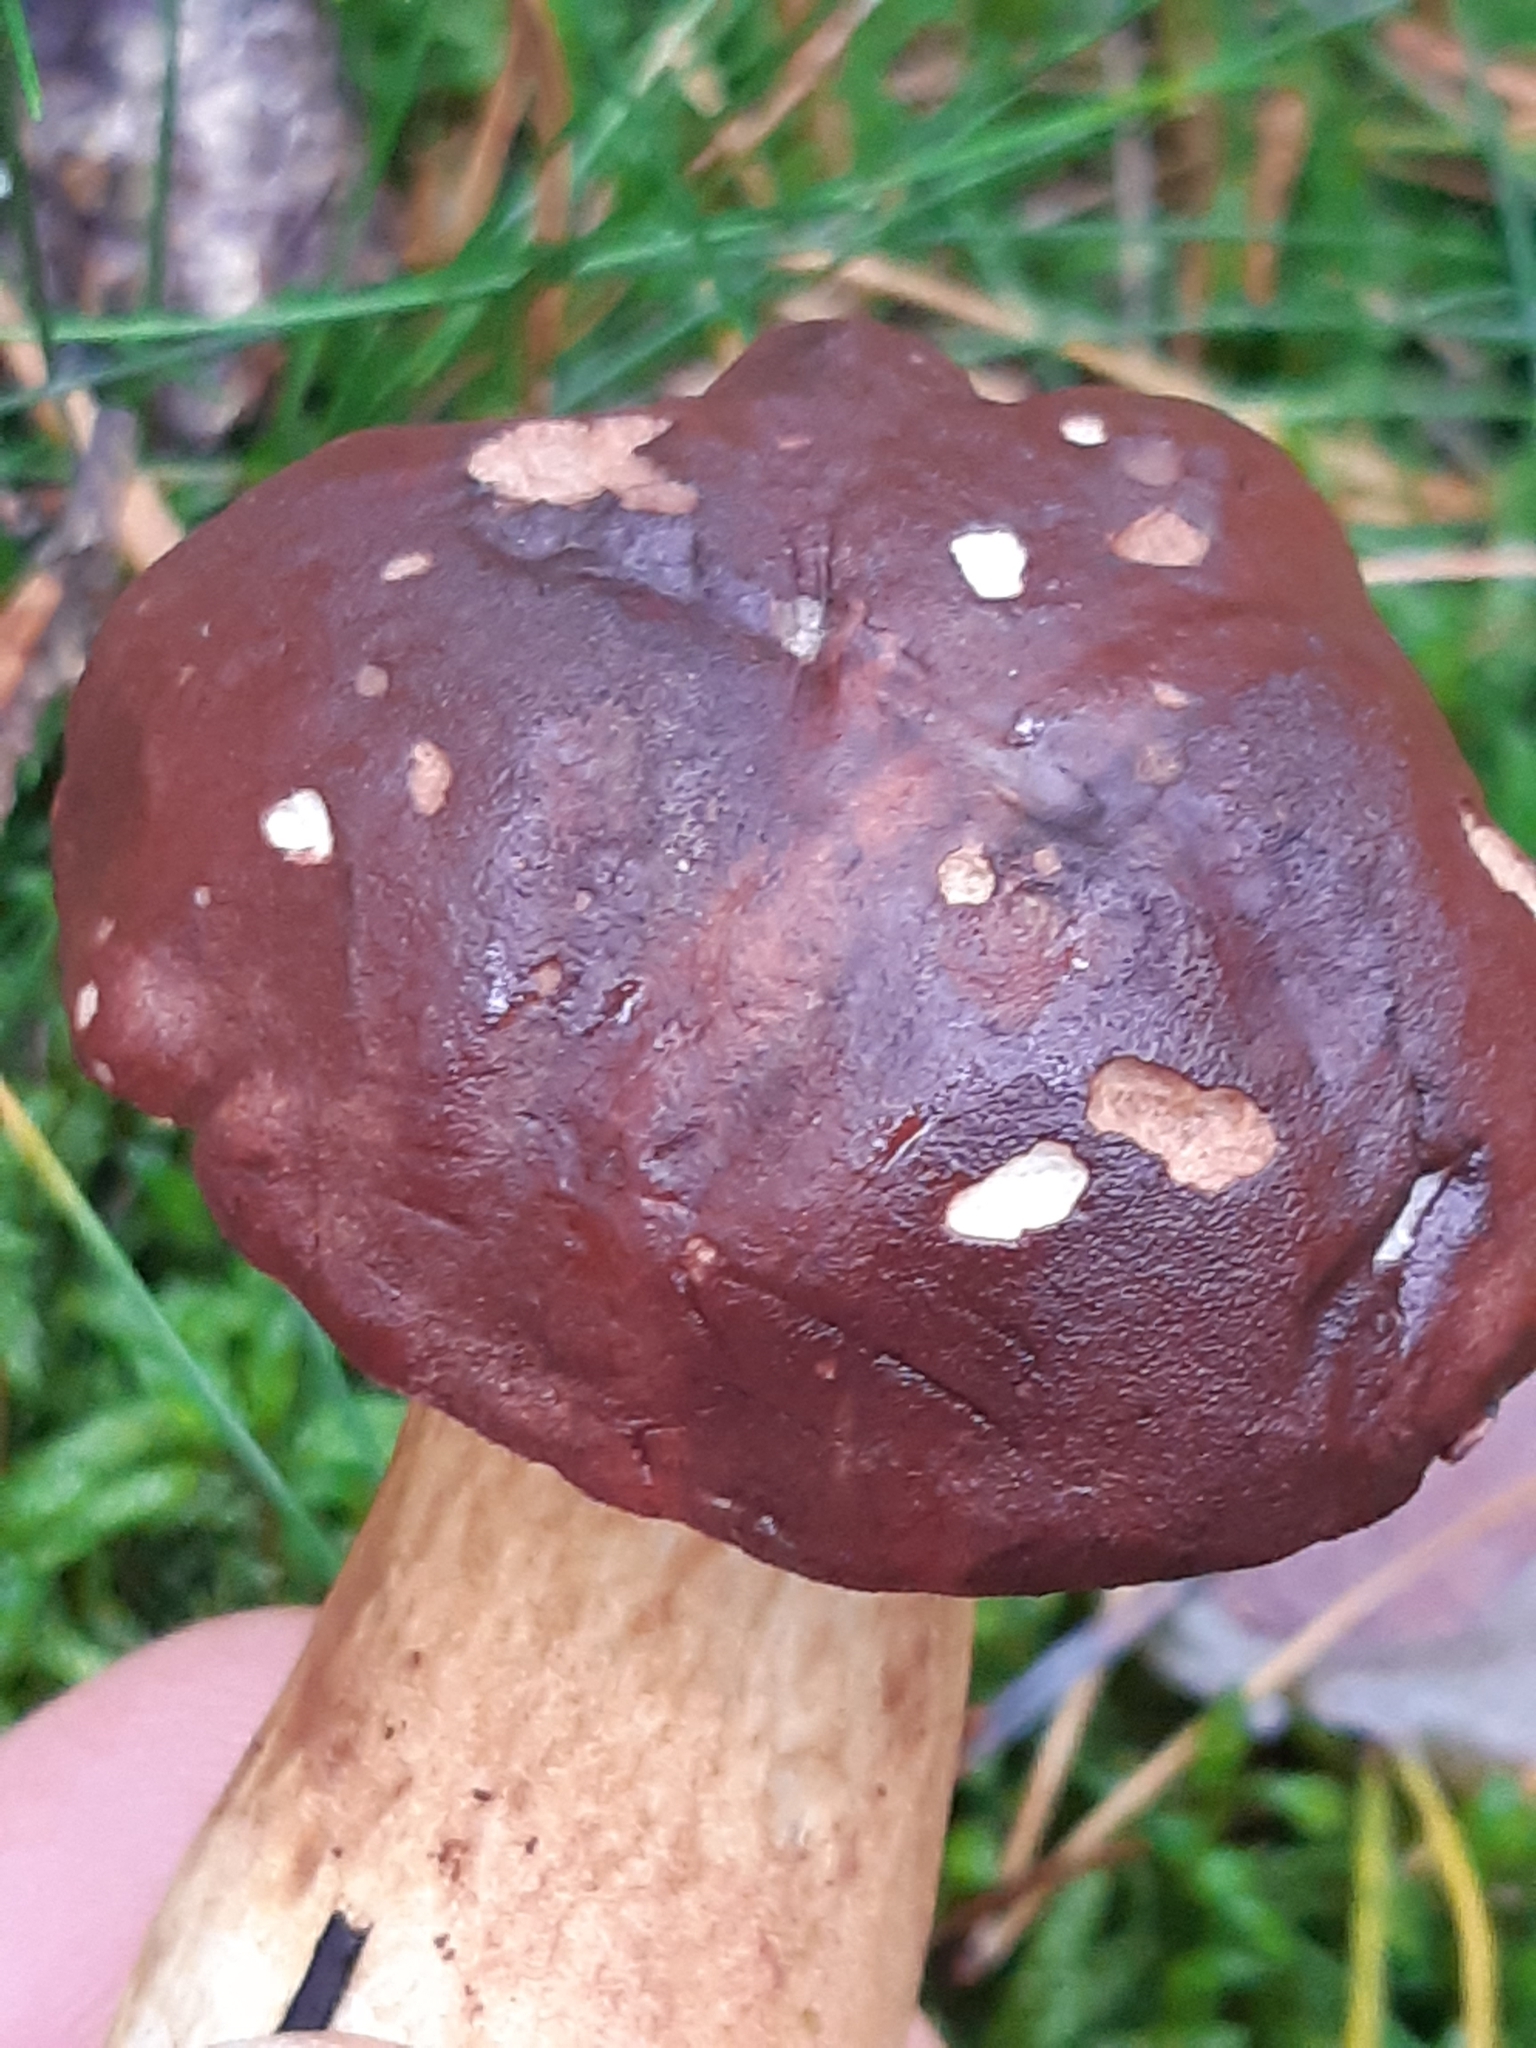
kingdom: Fungi
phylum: Basidiomycota
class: Agaricomycetes
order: Boletales
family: Boletaceae
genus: Imleria
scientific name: Imleria badia
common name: Bay bolete
